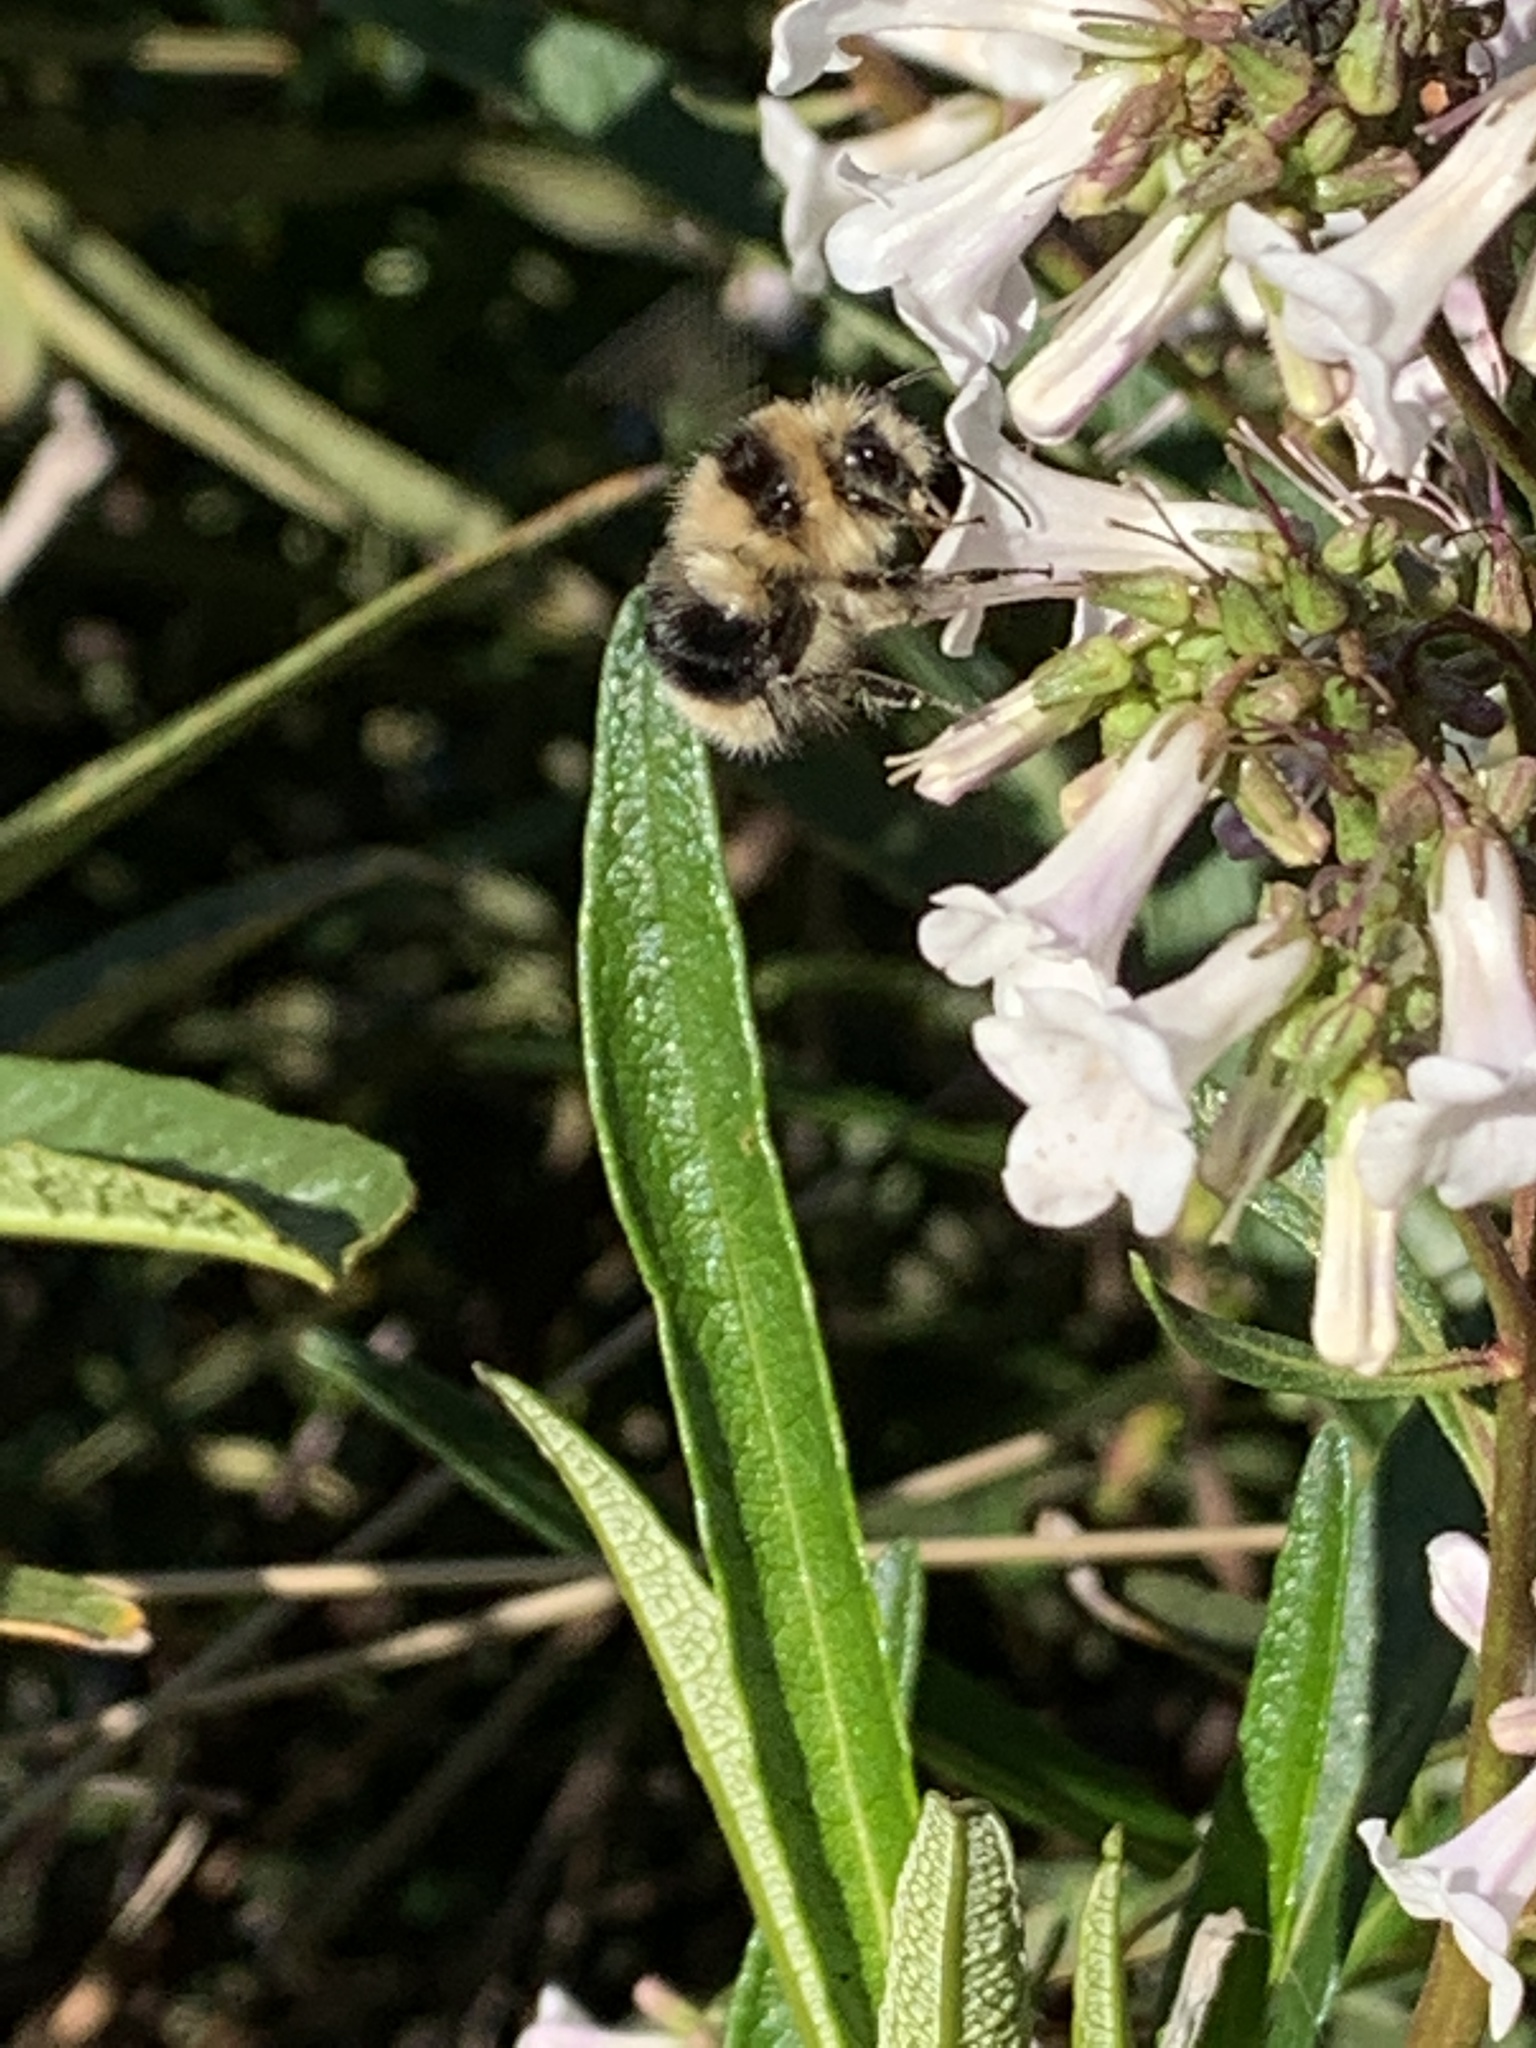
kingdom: Animalia
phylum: Arthropoda
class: Insecta
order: Hymenoptera
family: Apidae
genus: Bombus
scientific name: Bombus melanopygus
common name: Black tail bumble bee
